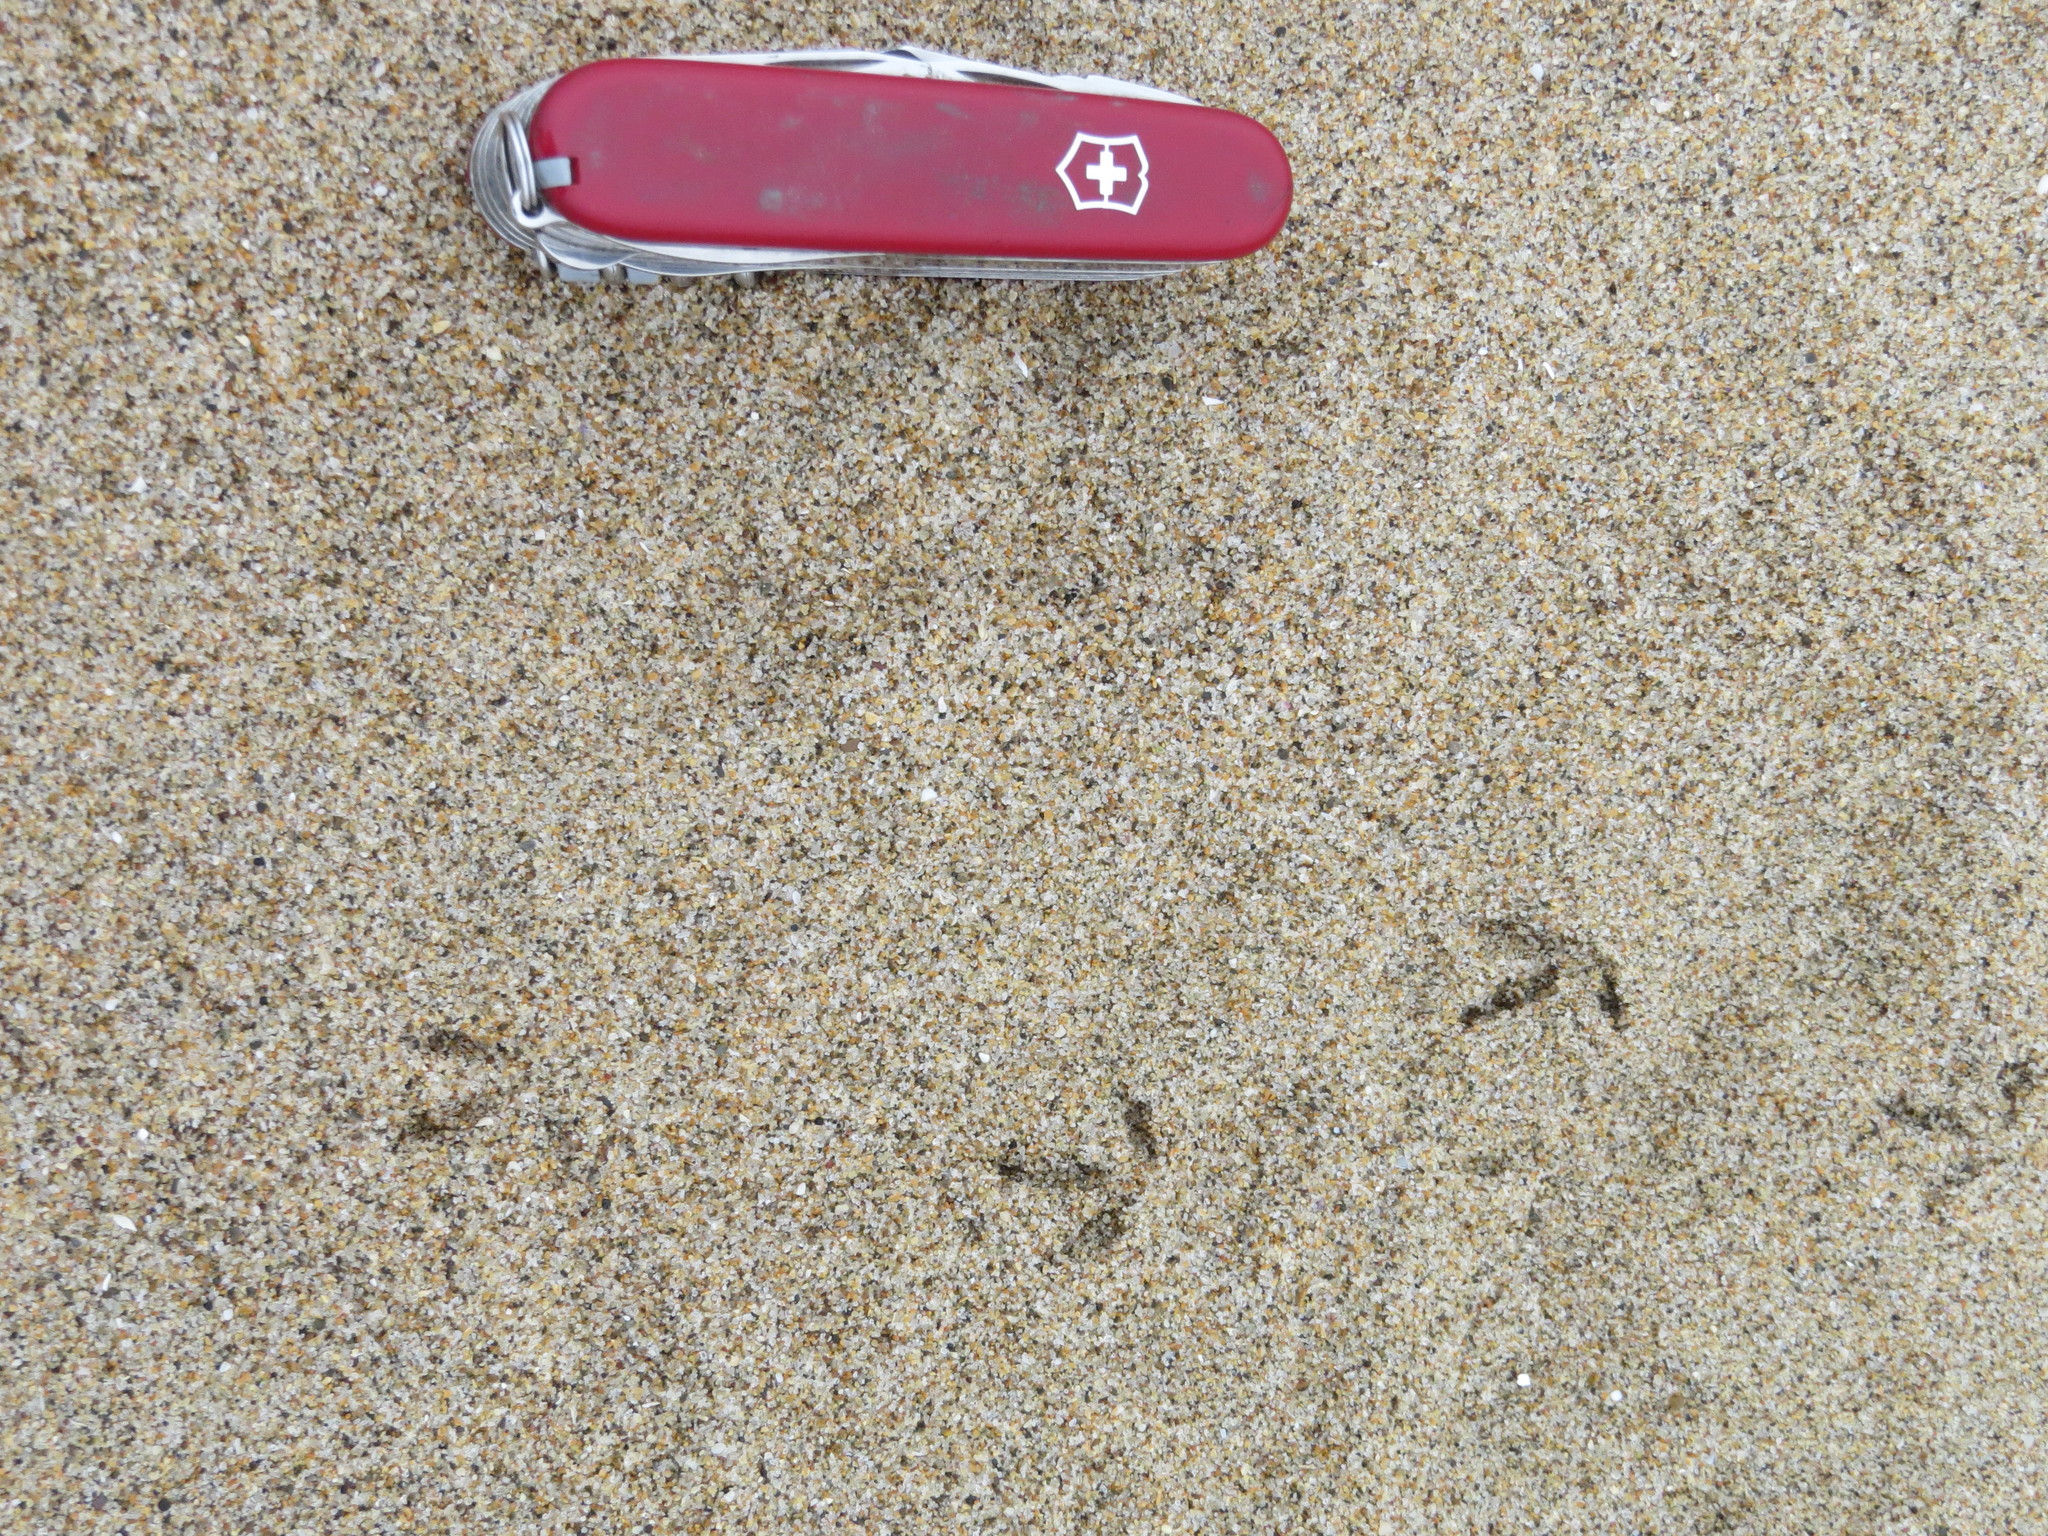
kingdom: Animalia
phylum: Chordata
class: Aves
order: Charadriiformes
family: Charadriidae
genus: Anarhynchus
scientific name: Anarhynchus
